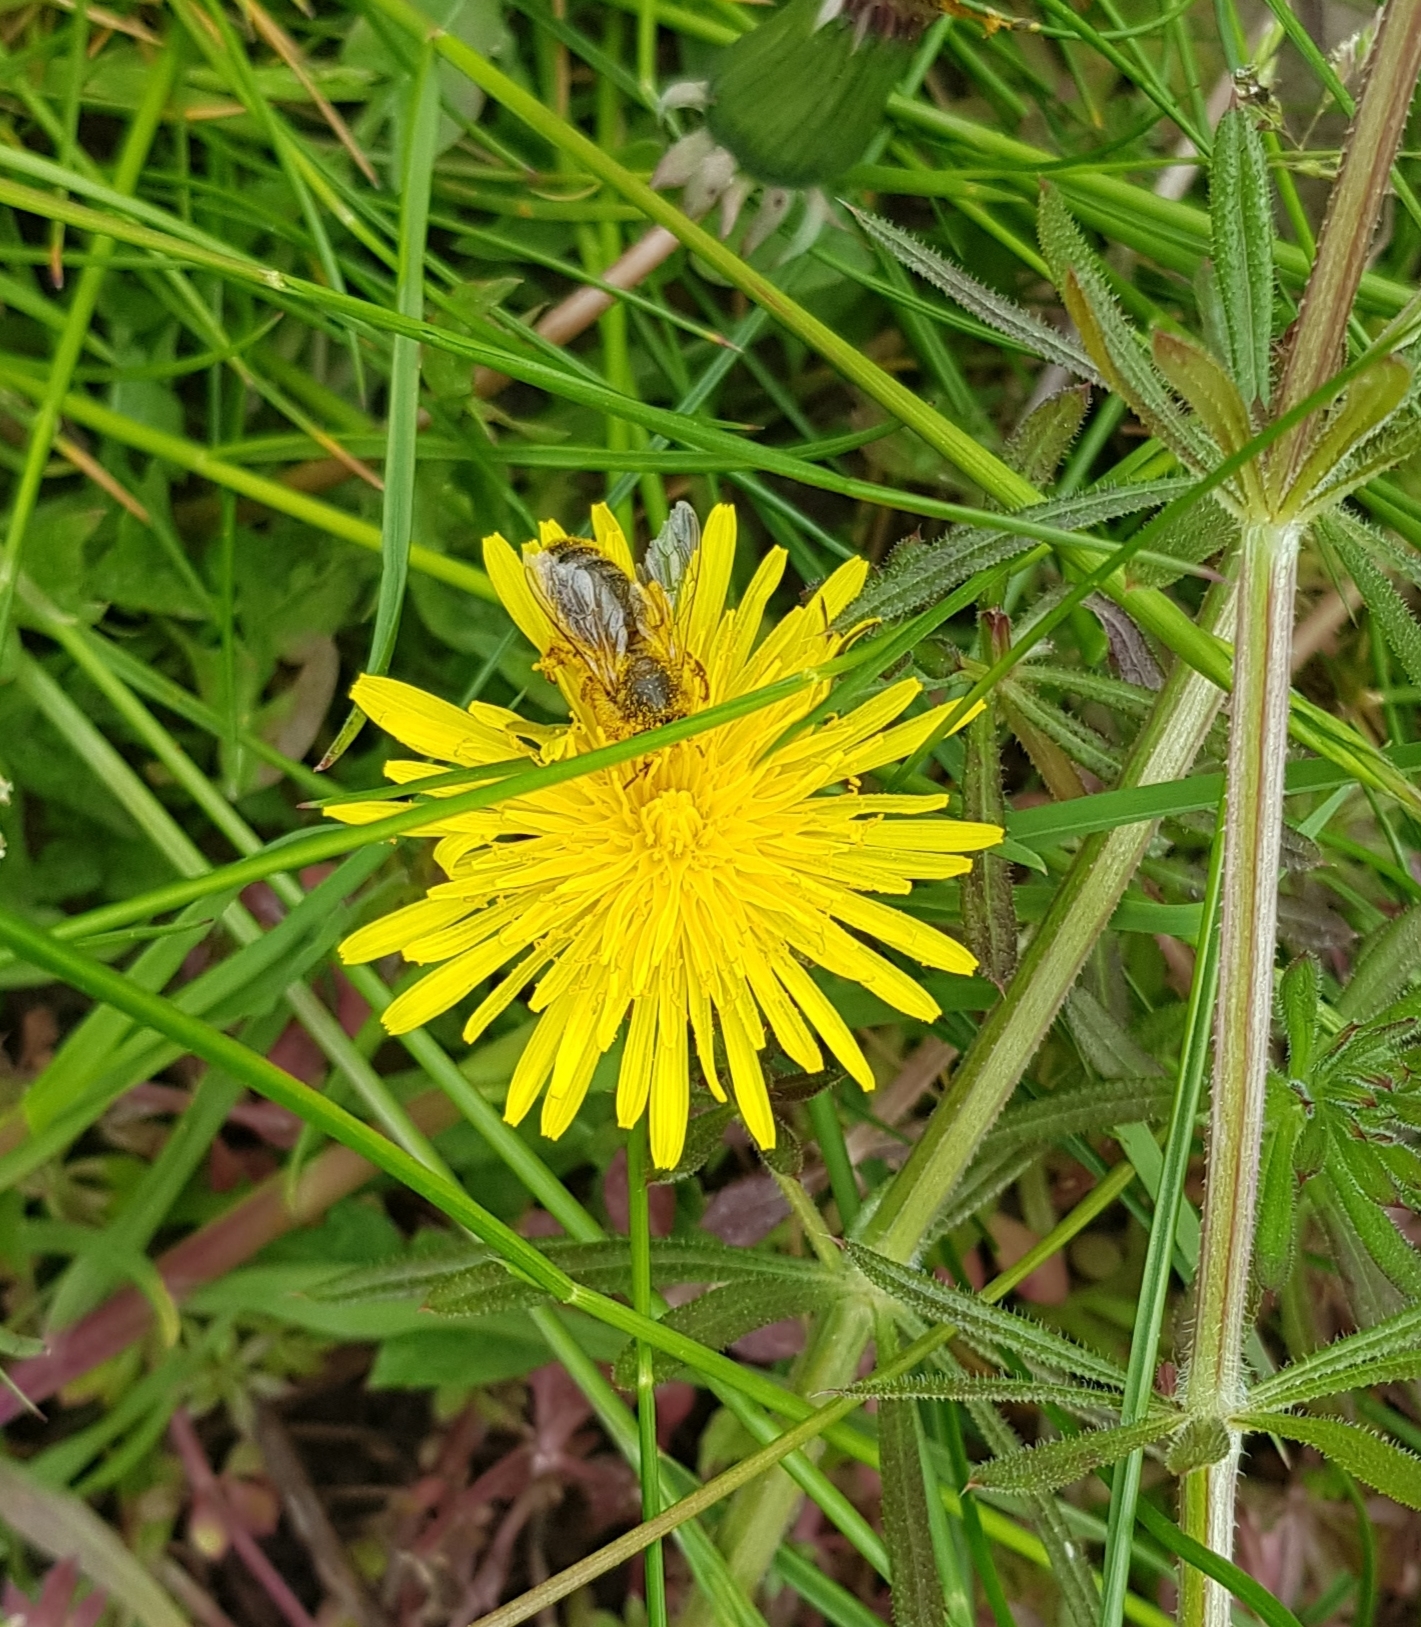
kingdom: Animalia
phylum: Arthropoda
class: Insecta
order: Hymenoptera
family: Apidae
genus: Apis
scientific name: Apis mellifera
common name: Honey bee
